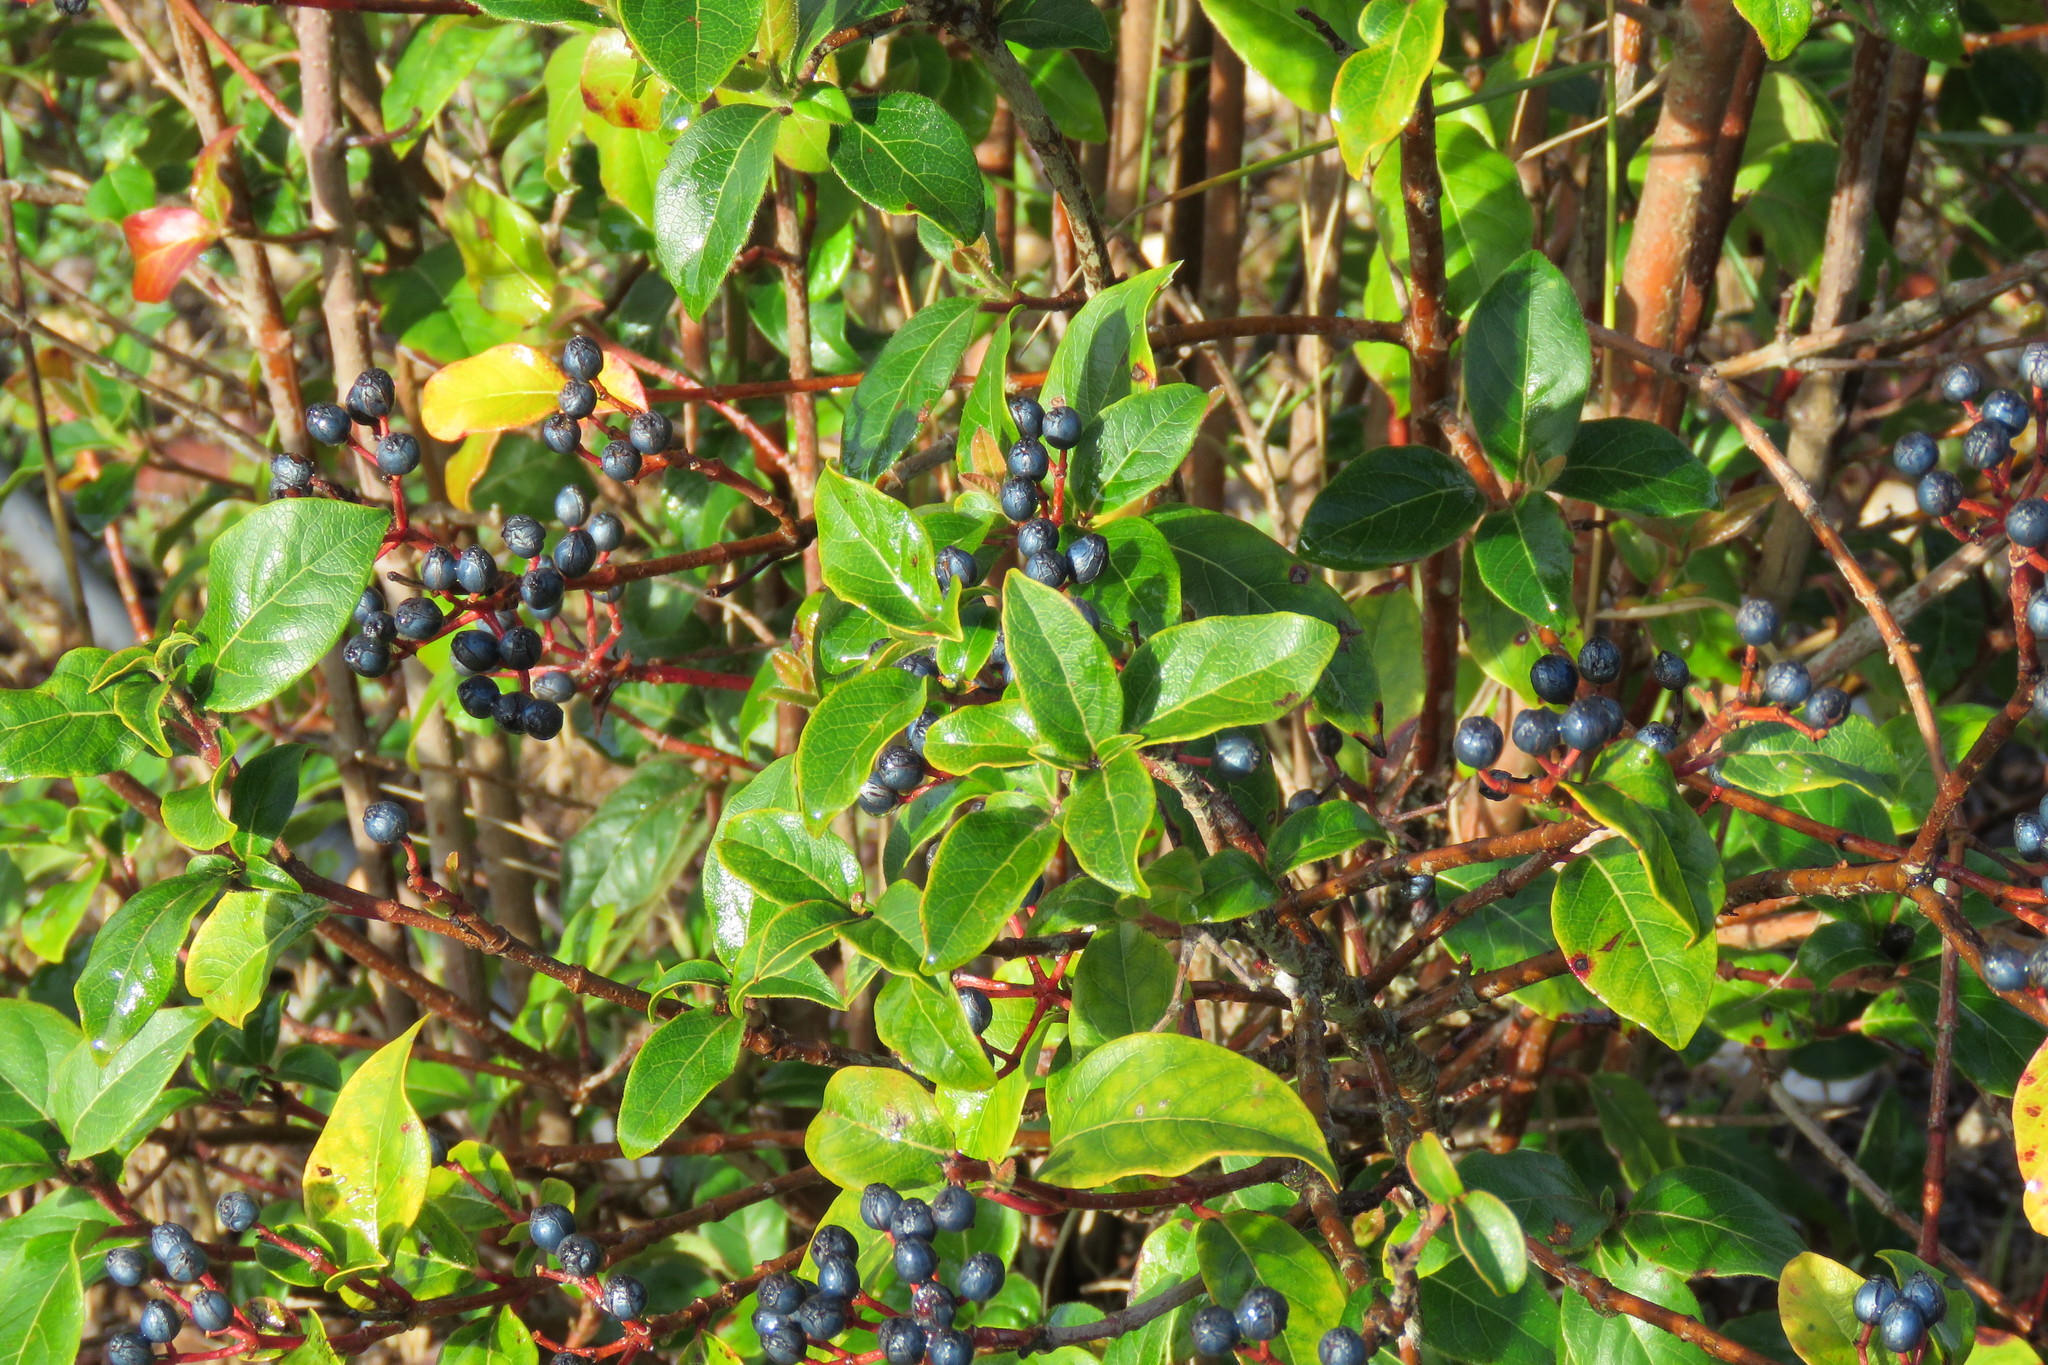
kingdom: Plantae
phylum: Tracheophyta
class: Magnoliopsida
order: Dipsacales
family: Viburnaceae
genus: Viburnum
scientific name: Viburnum tinus
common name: Laurustinus
